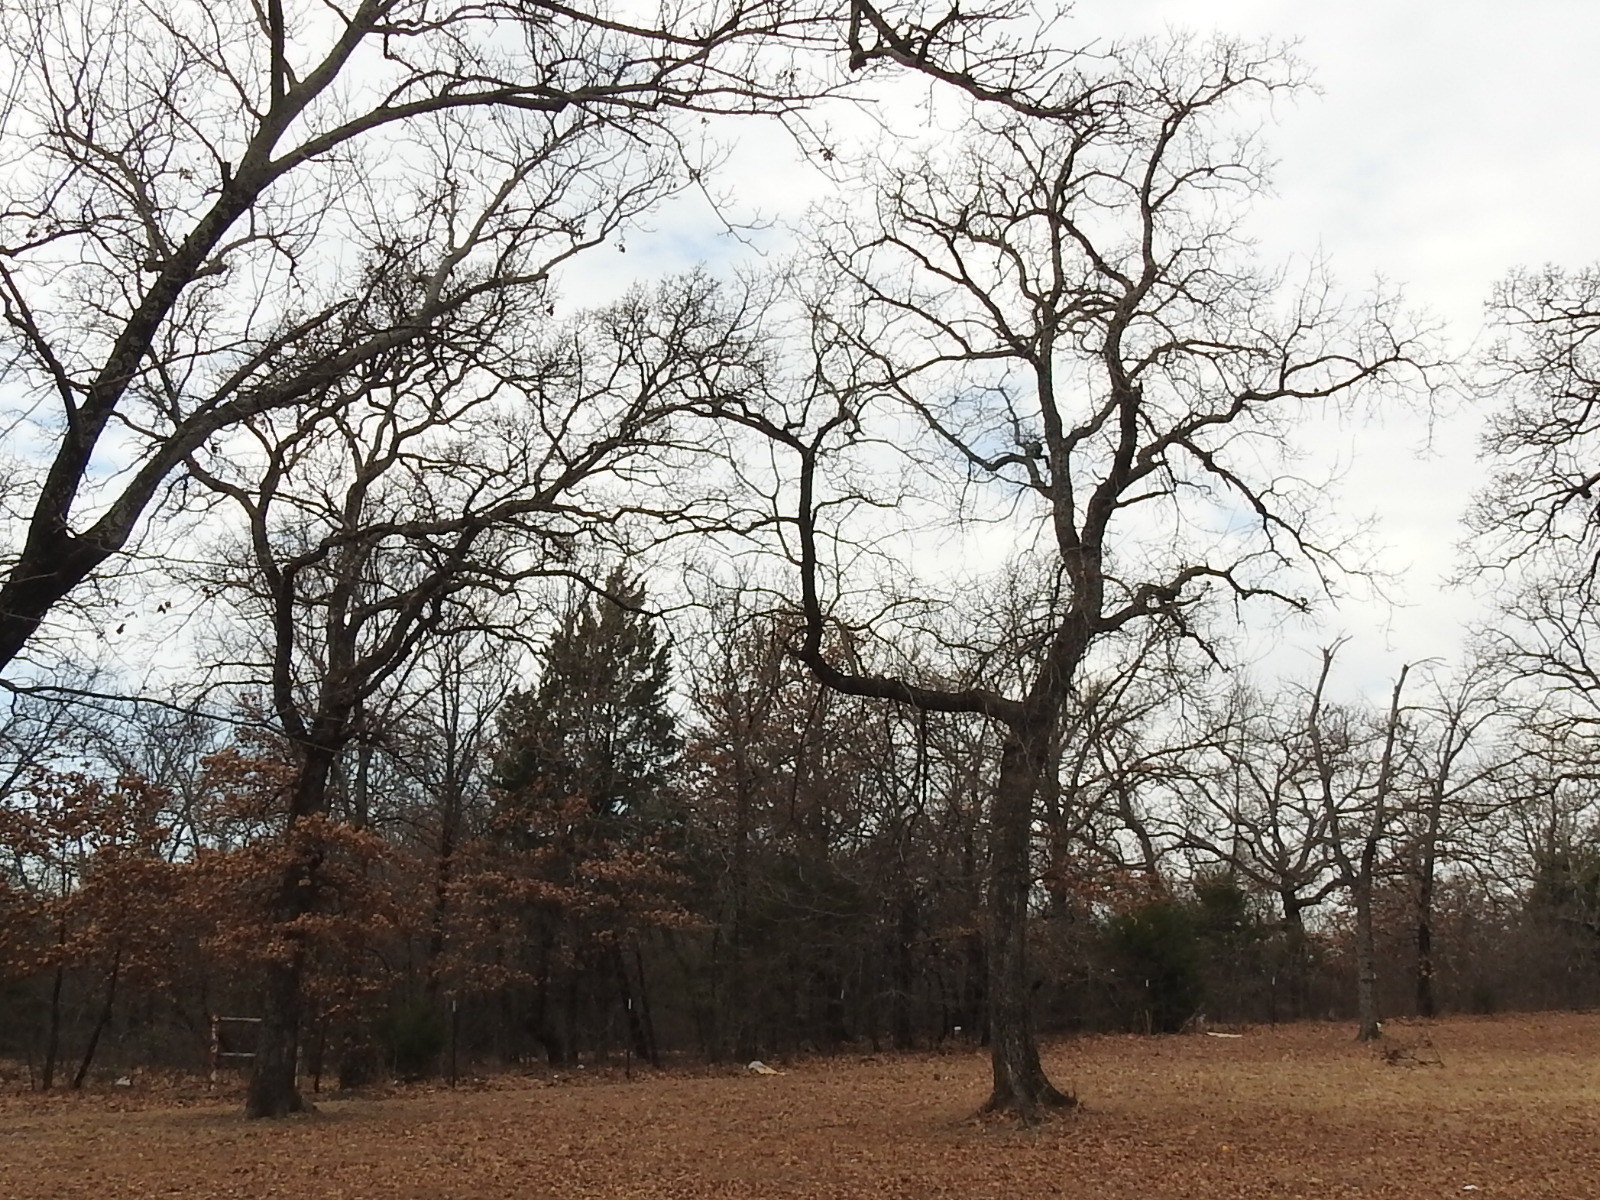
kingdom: Plantae
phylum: Tracheophyta
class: Magnoliopsida
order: Fagales
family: Fagaceae
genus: Quercus
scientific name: Quercus stellata
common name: Post oak
